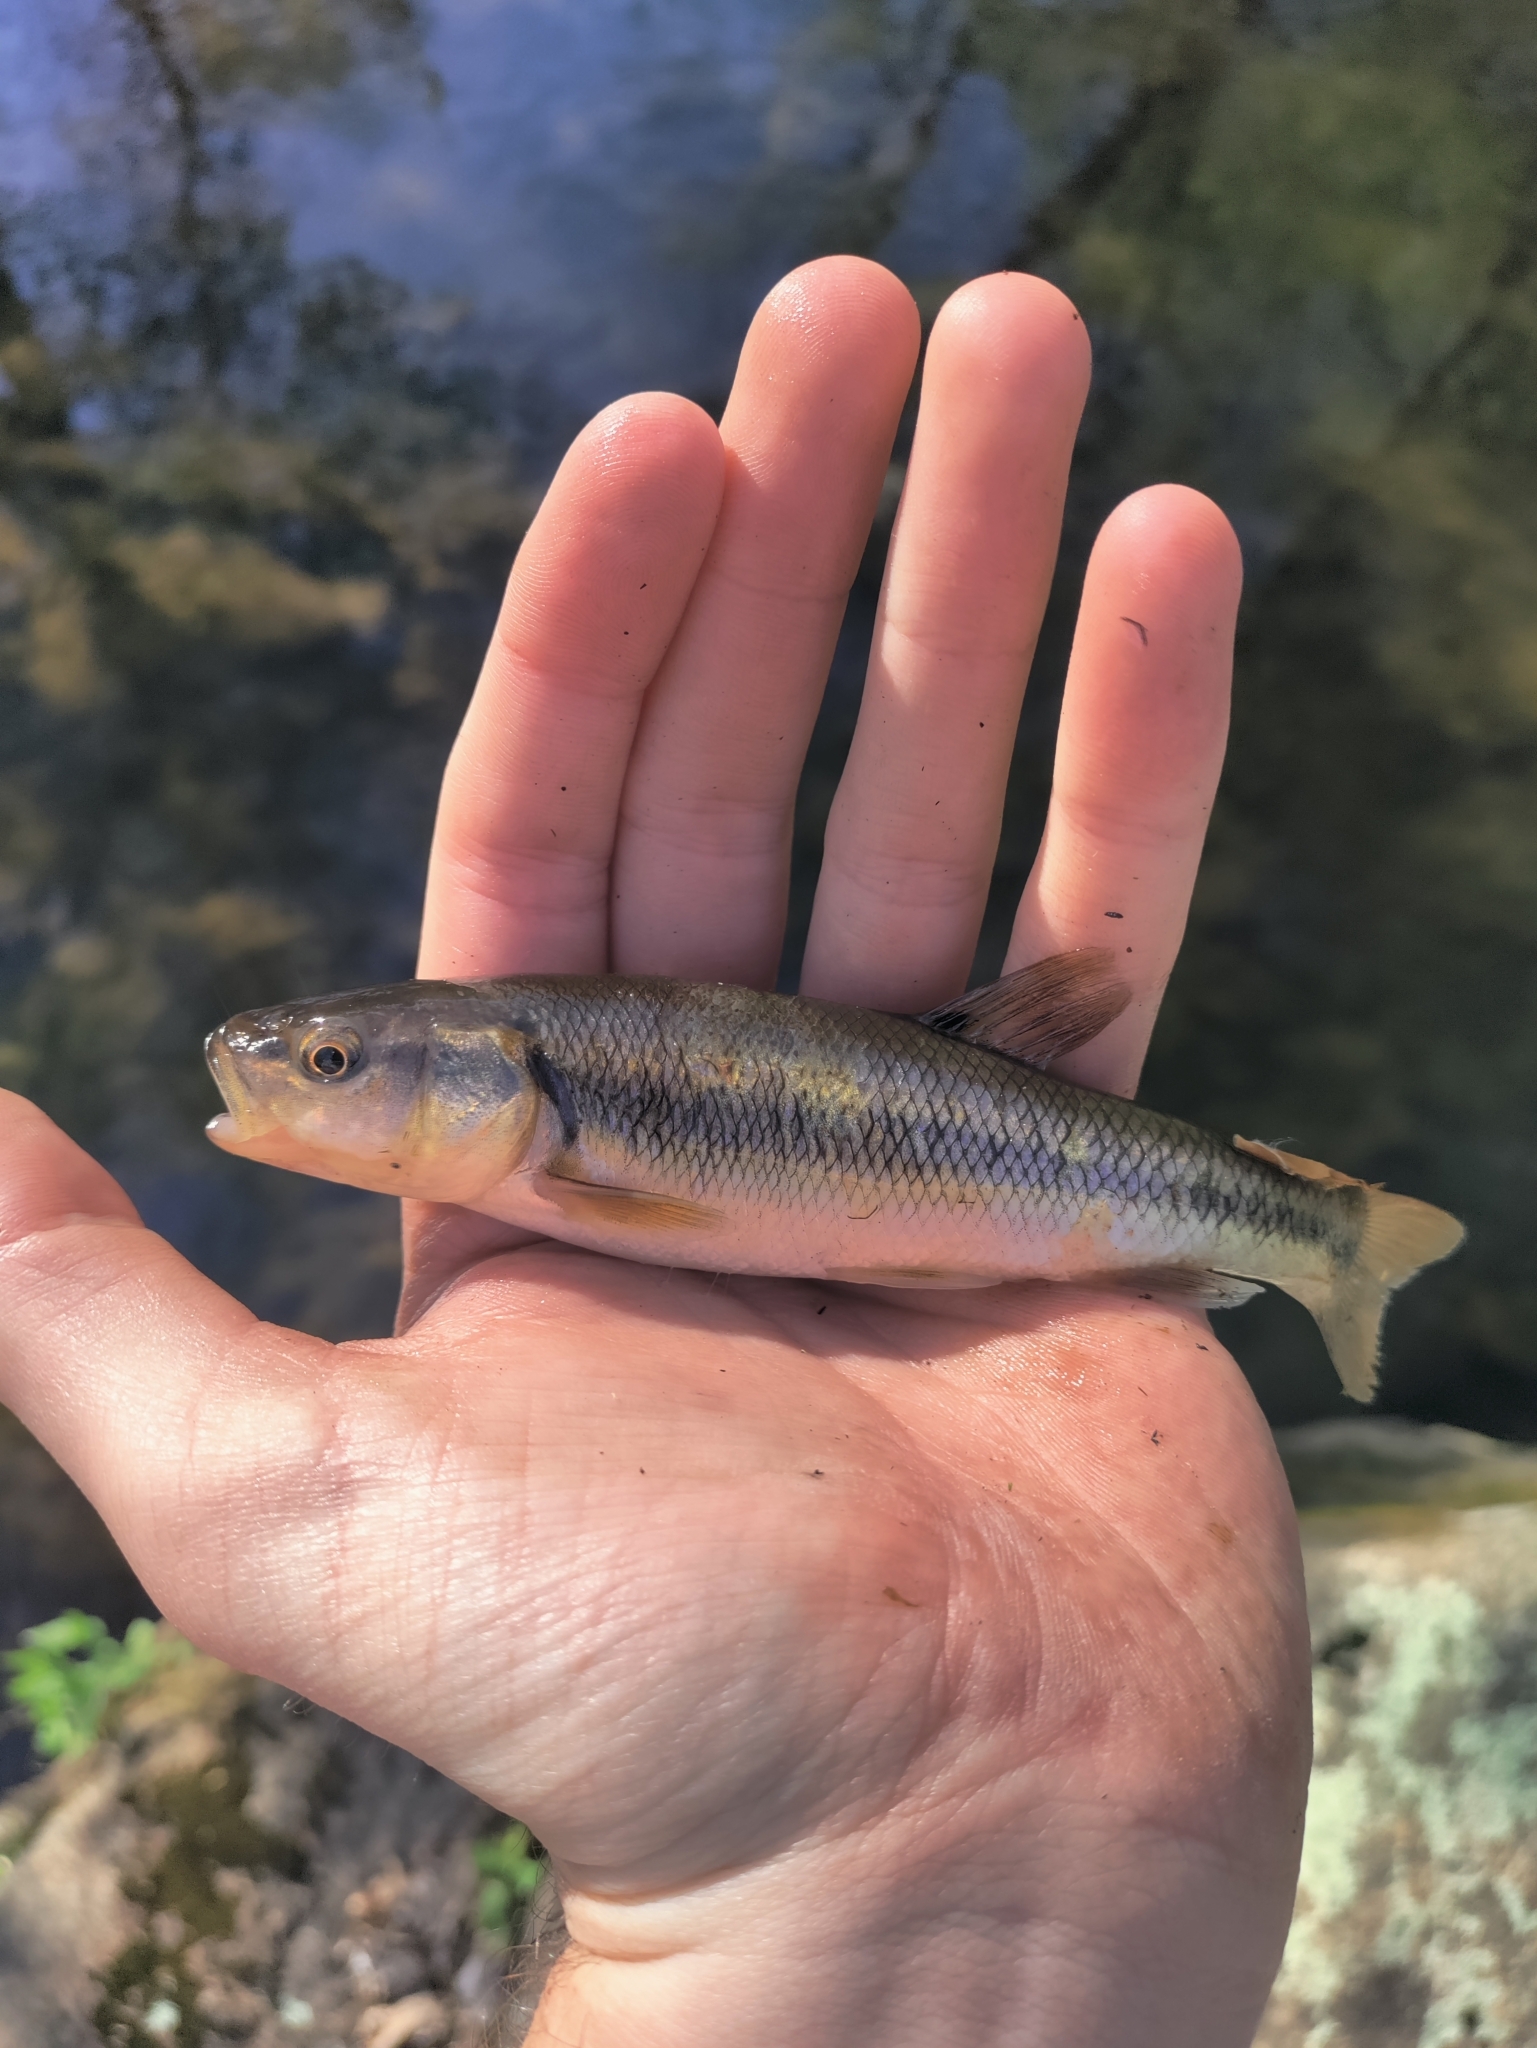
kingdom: Animalia
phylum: Chordata
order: Cypriniformes
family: Cyprinidae
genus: Semotilus
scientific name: Semotilus atromaculatus
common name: Creek chub
